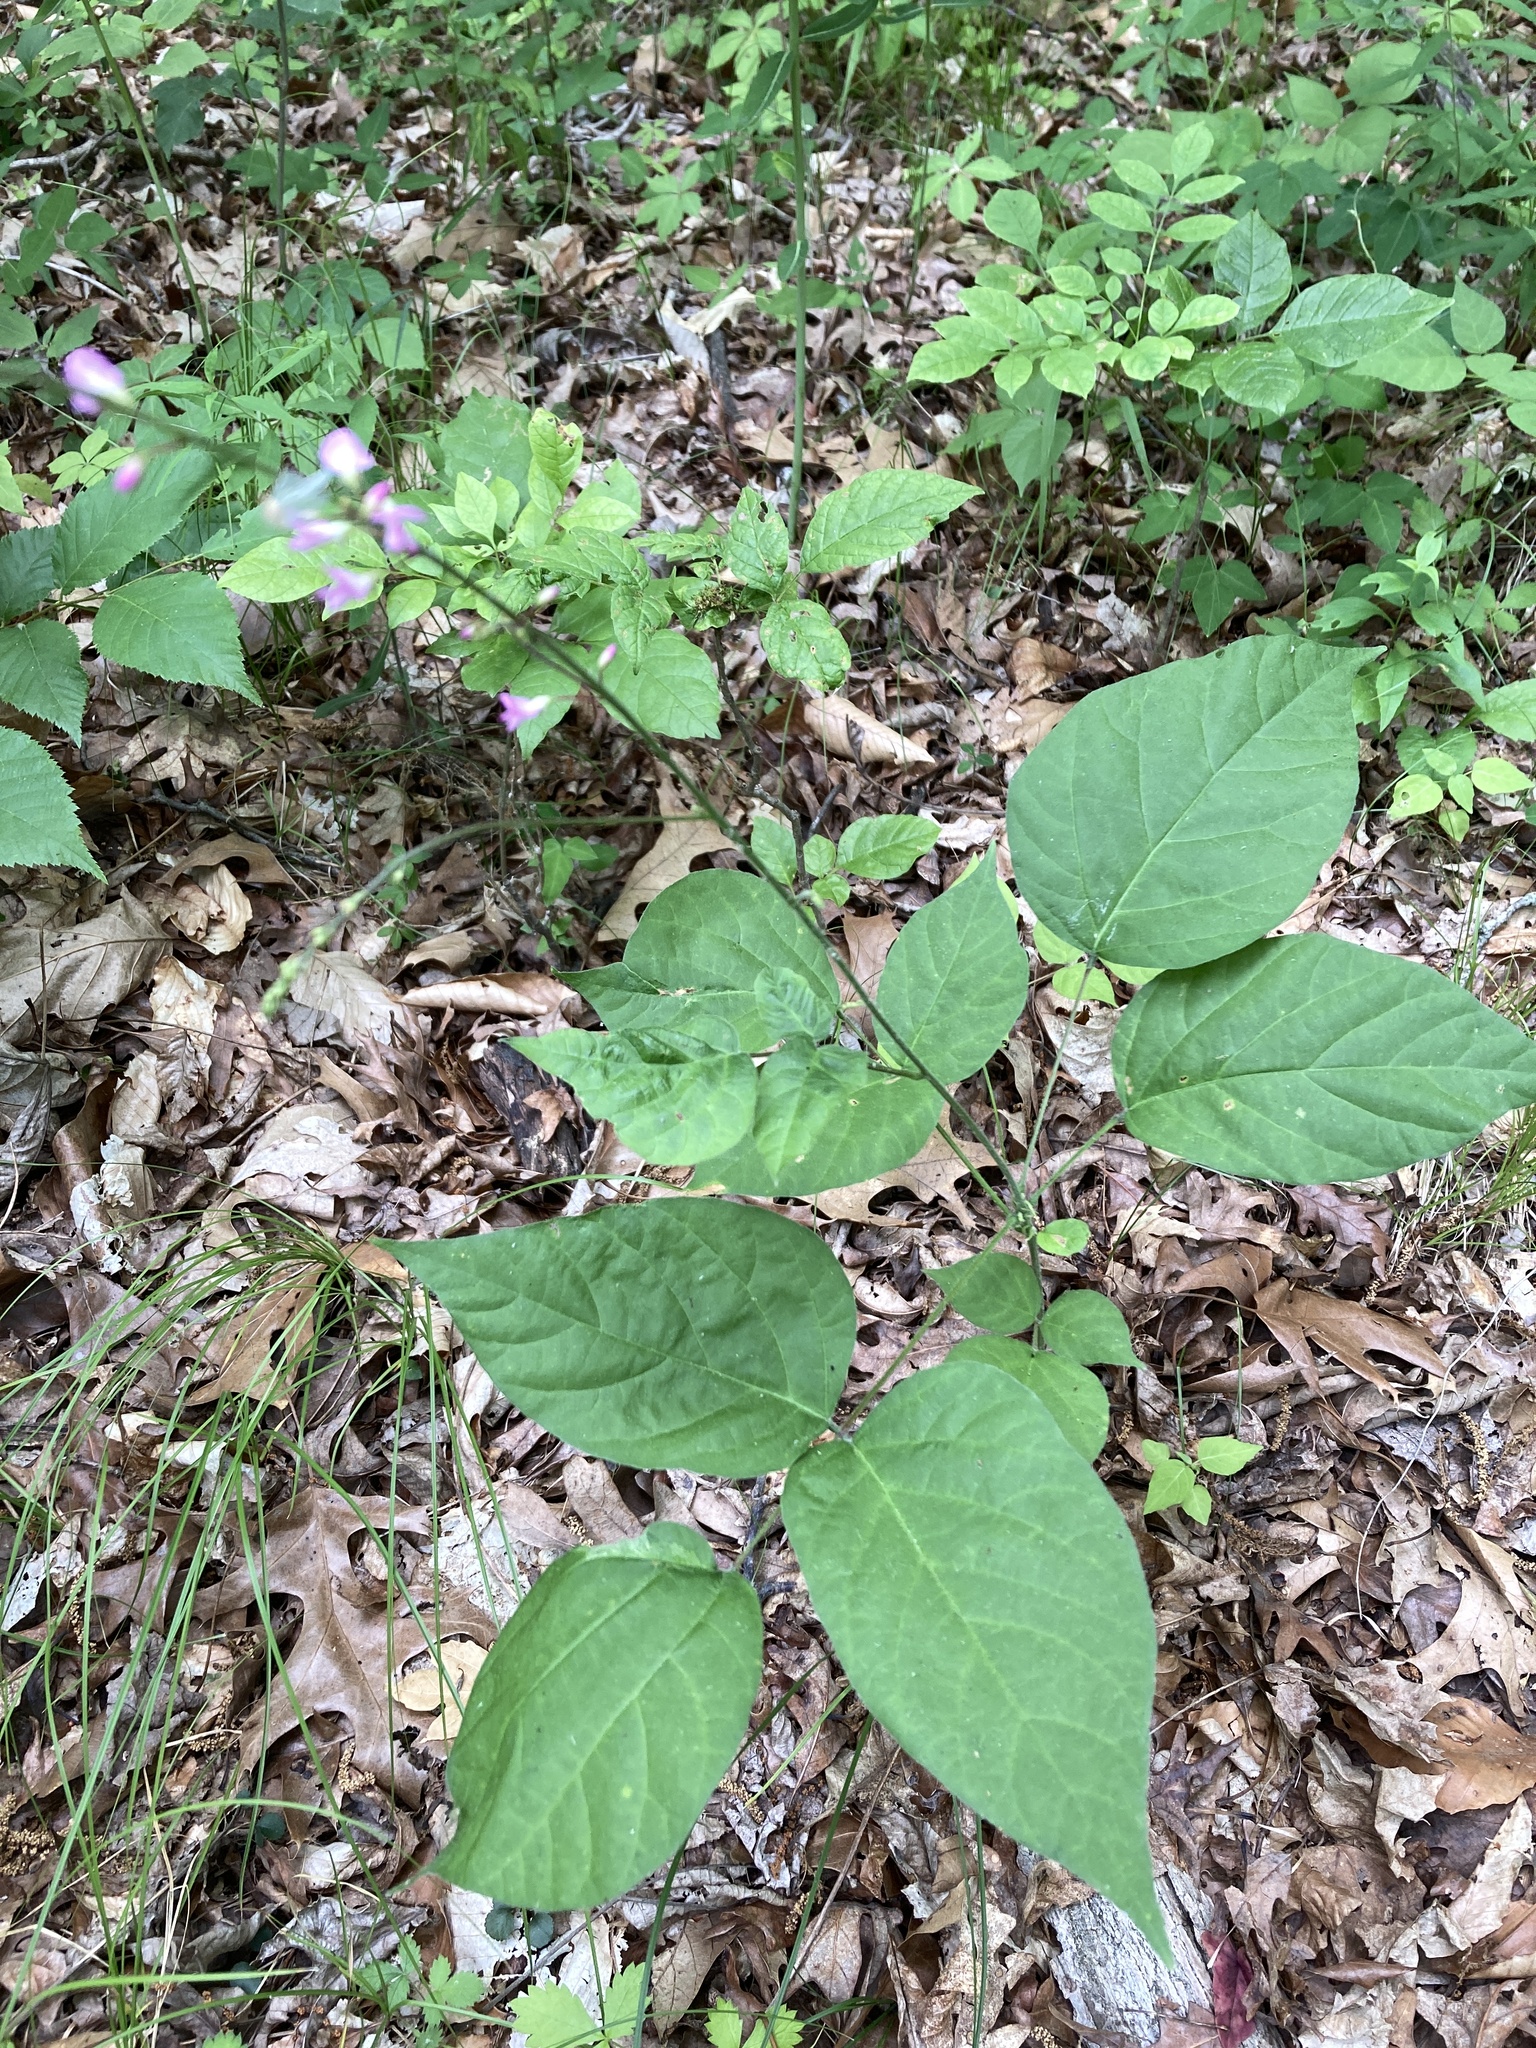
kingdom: Plantae
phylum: Tracheophyta
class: Magnoliopsida
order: Fabales
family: Fabaceae
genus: Hylodesmum
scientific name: Hylodesmum glutinosum
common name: Clustered-leaved tick-trefoil
